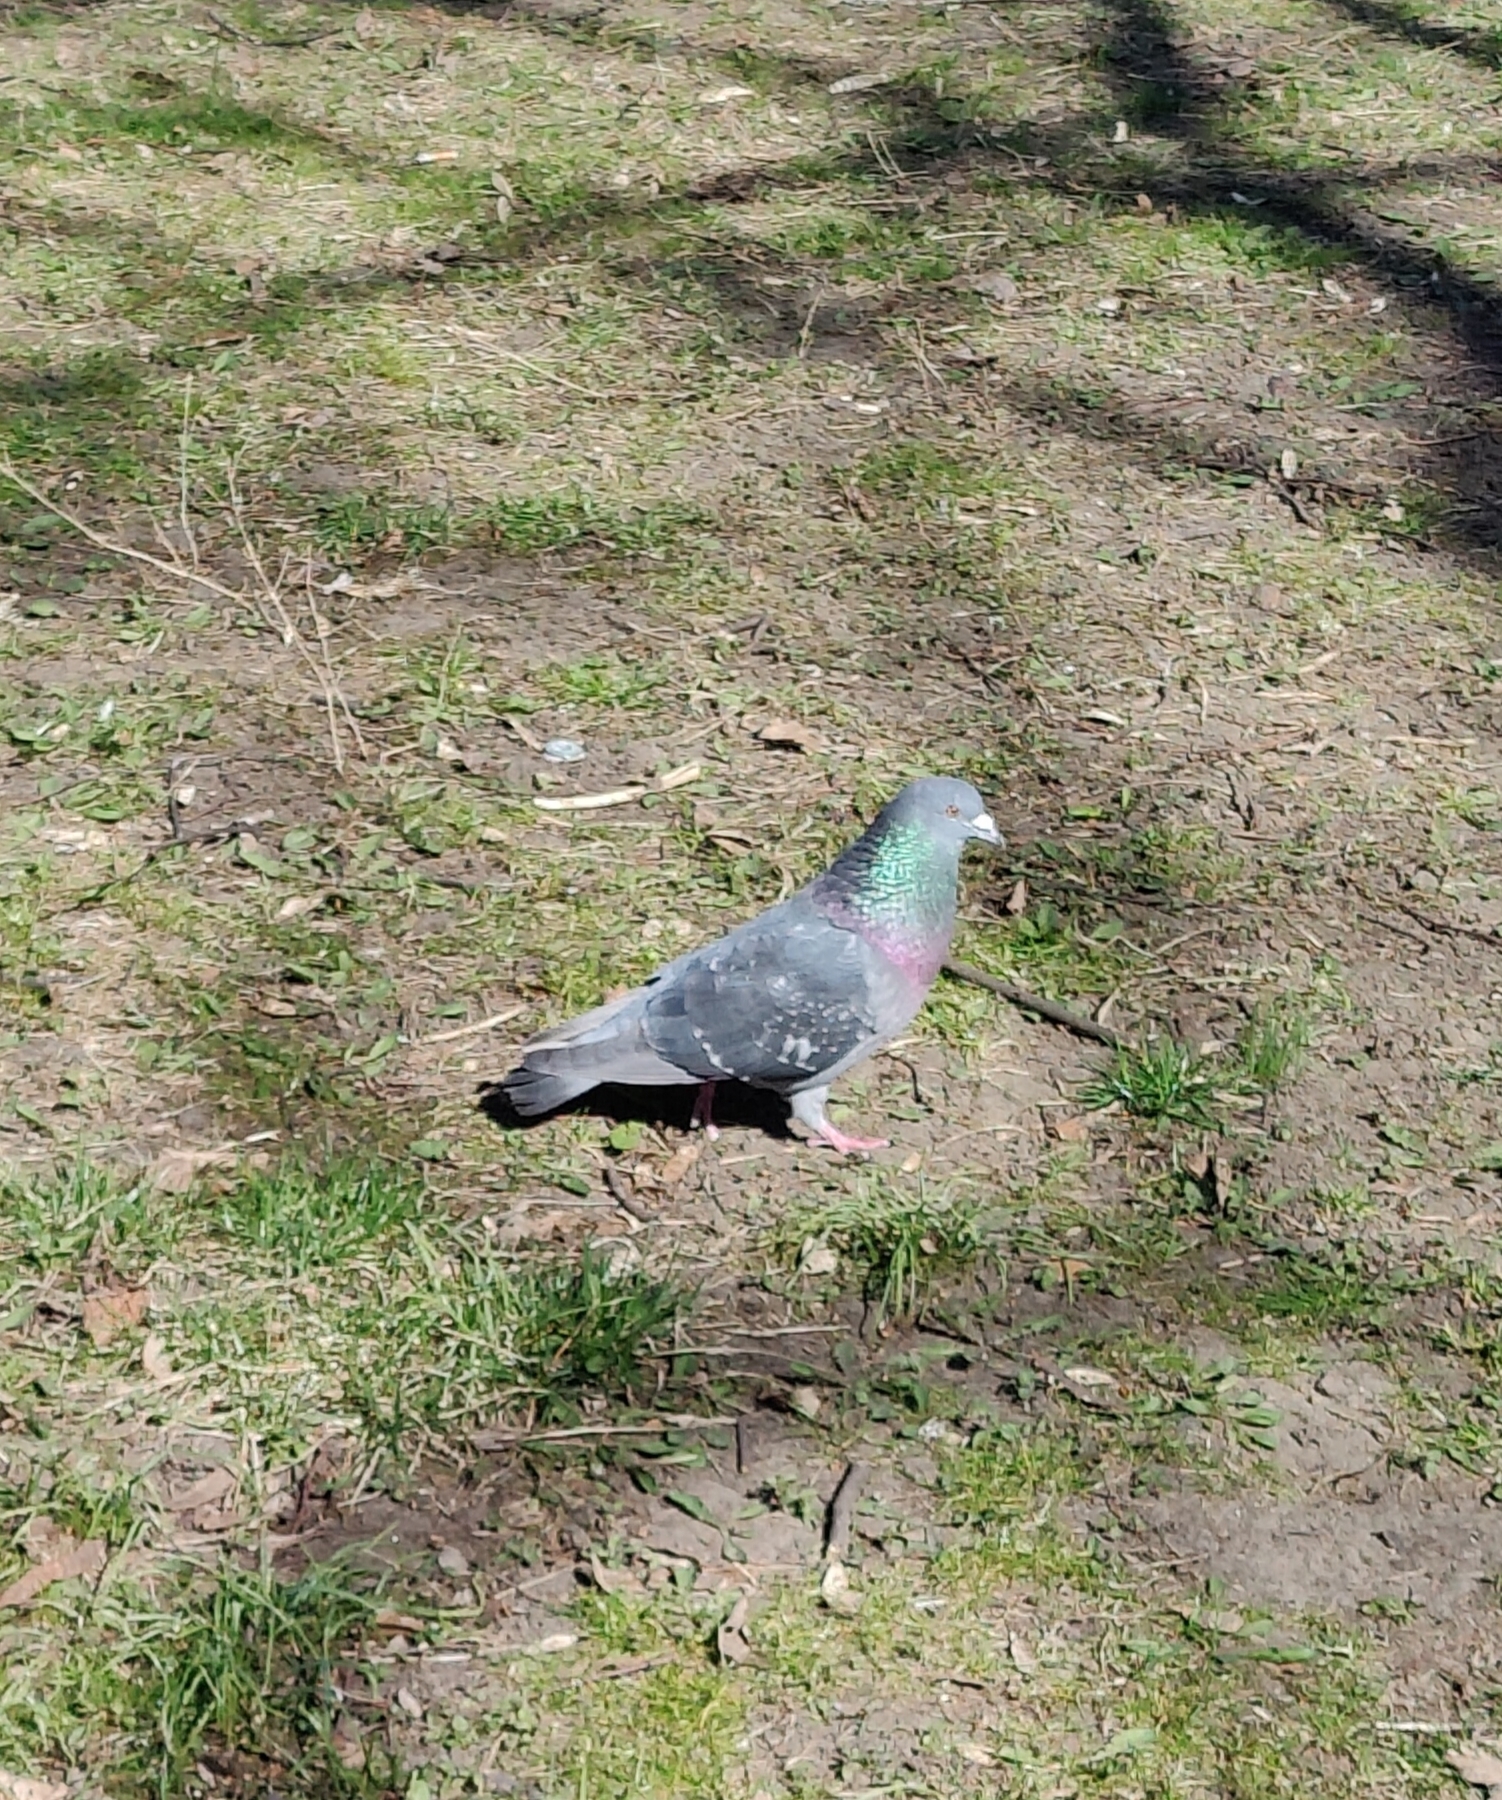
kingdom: Animalia
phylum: Chordata
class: Aves
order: Columbiformes
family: Columbidae
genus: Columba
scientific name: Columba livia
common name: Rock pigeon
